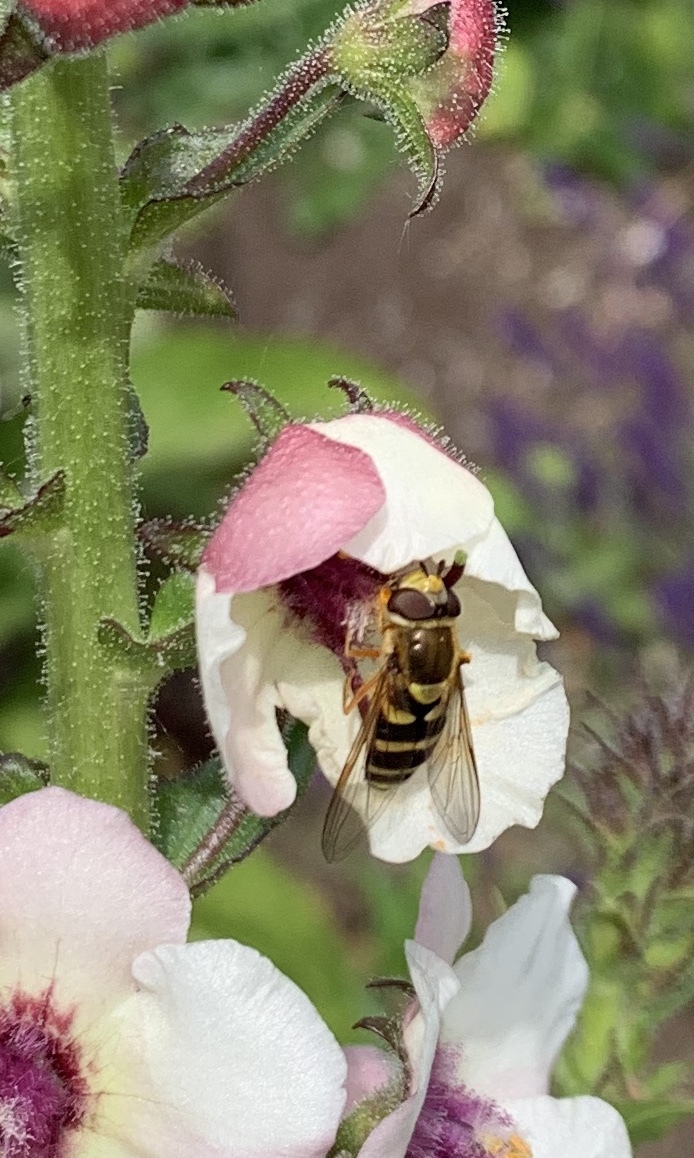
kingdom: Animalia
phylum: Arthropoda
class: Insecta
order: Diptera
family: Syrphidae
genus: Syrphus
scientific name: Syrphus opinator
